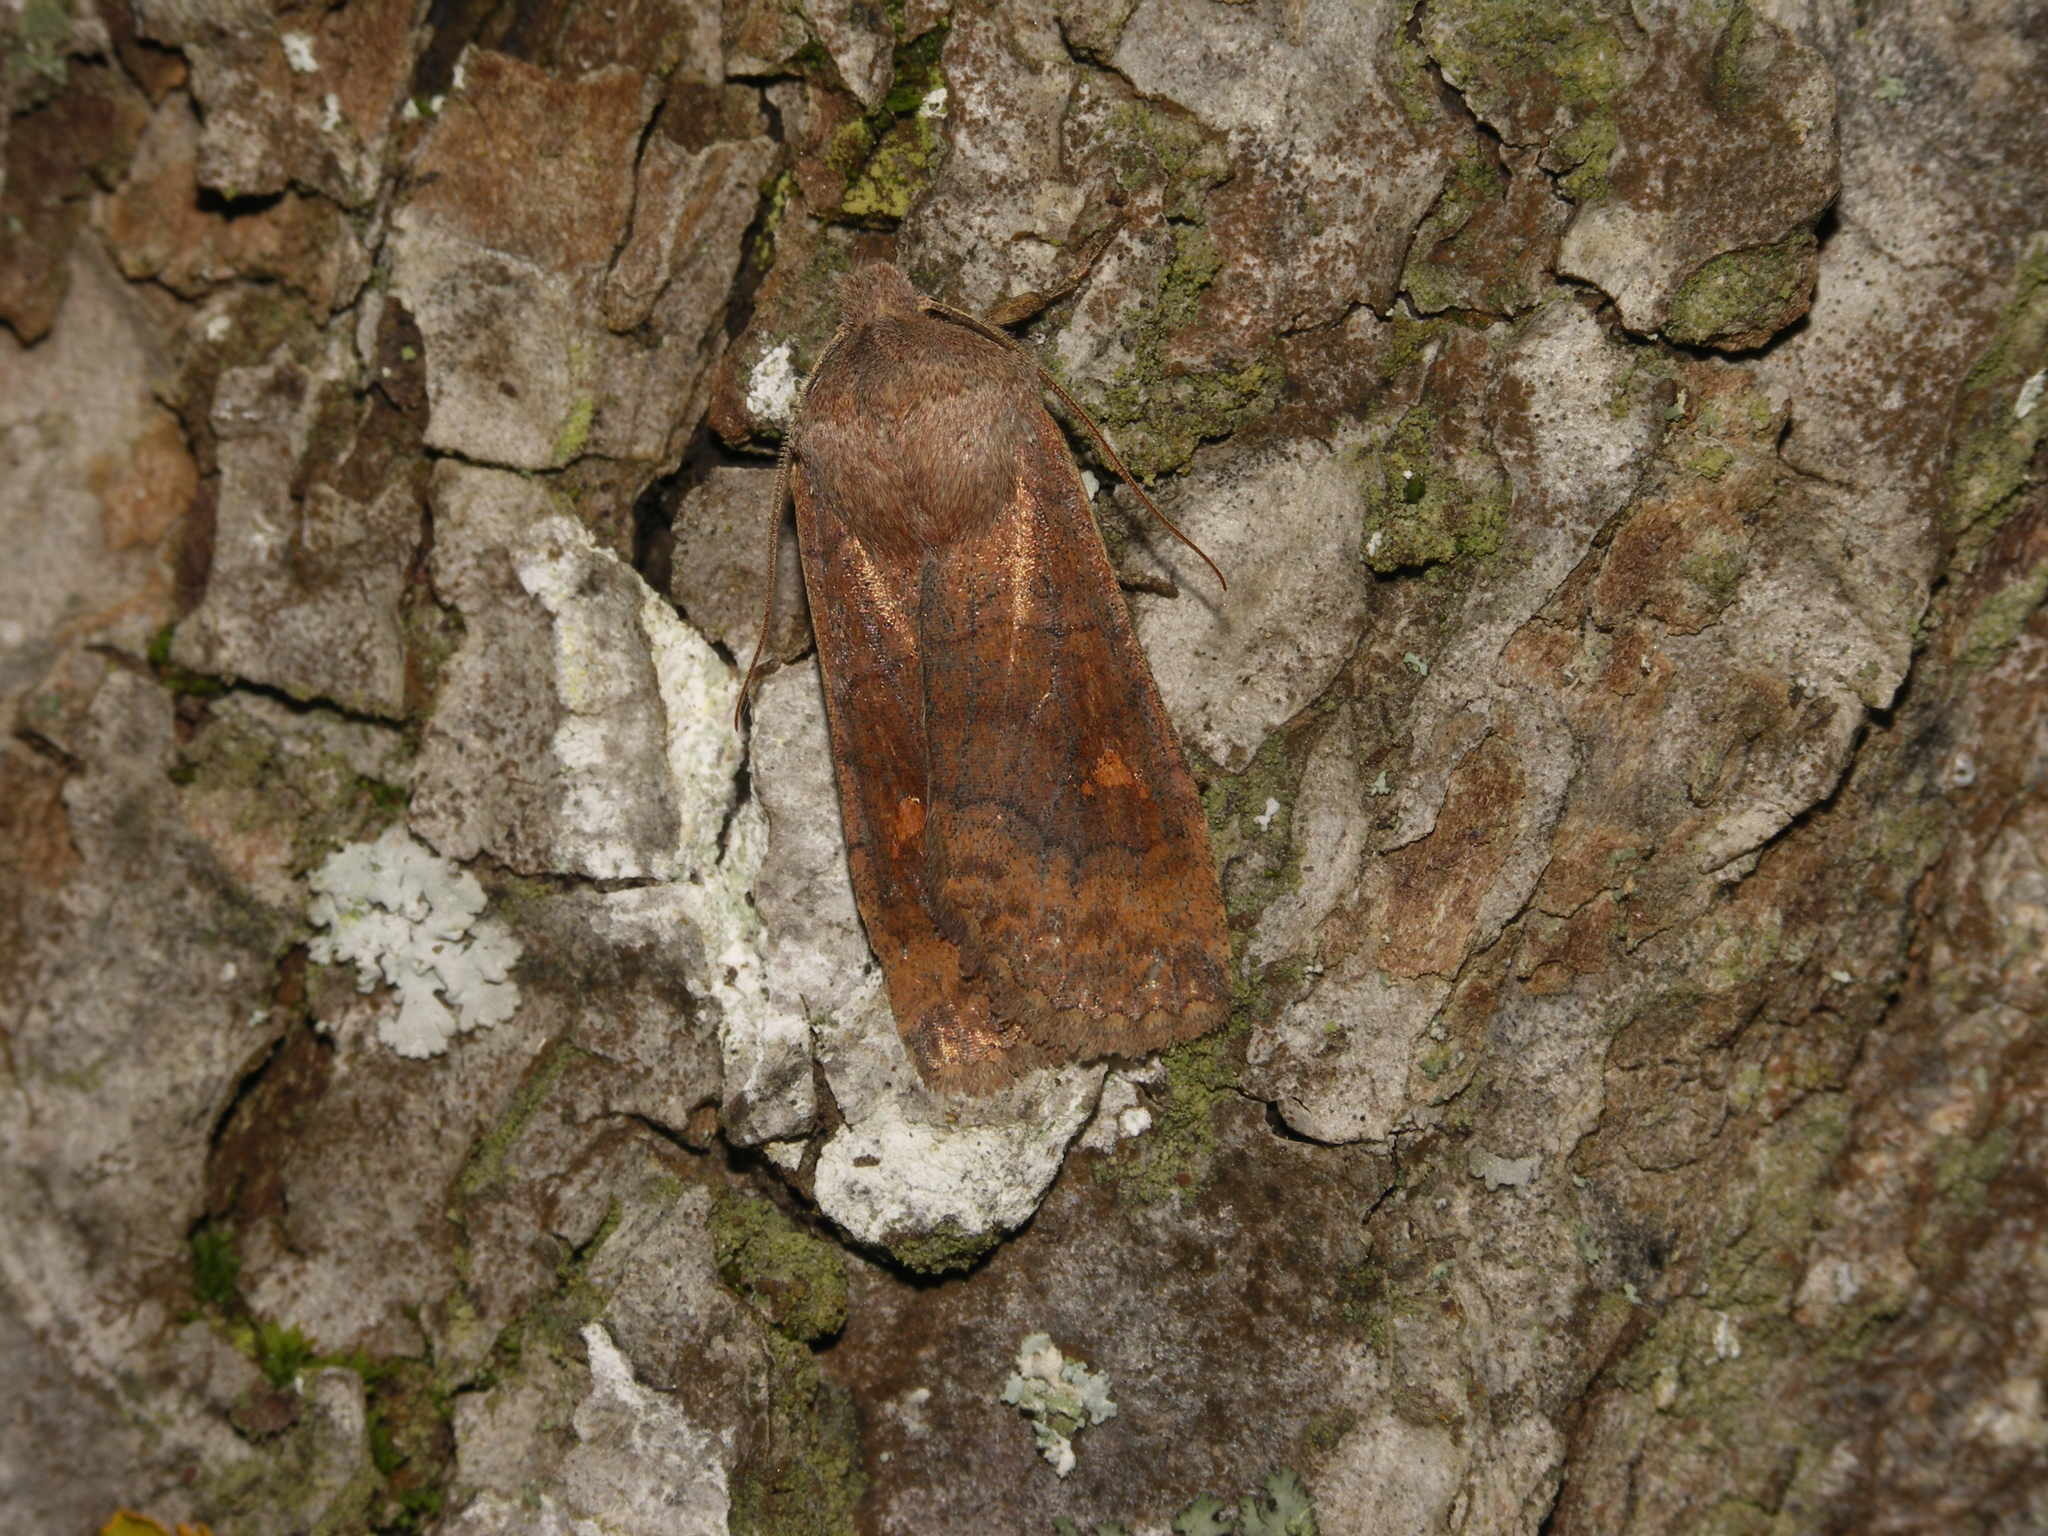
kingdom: Animalia
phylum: Arthropoda
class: Insecta
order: Lepidoptera
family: Noctuidae
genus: Eupsilia
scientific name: Eupsilia transversa
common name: Satellite
